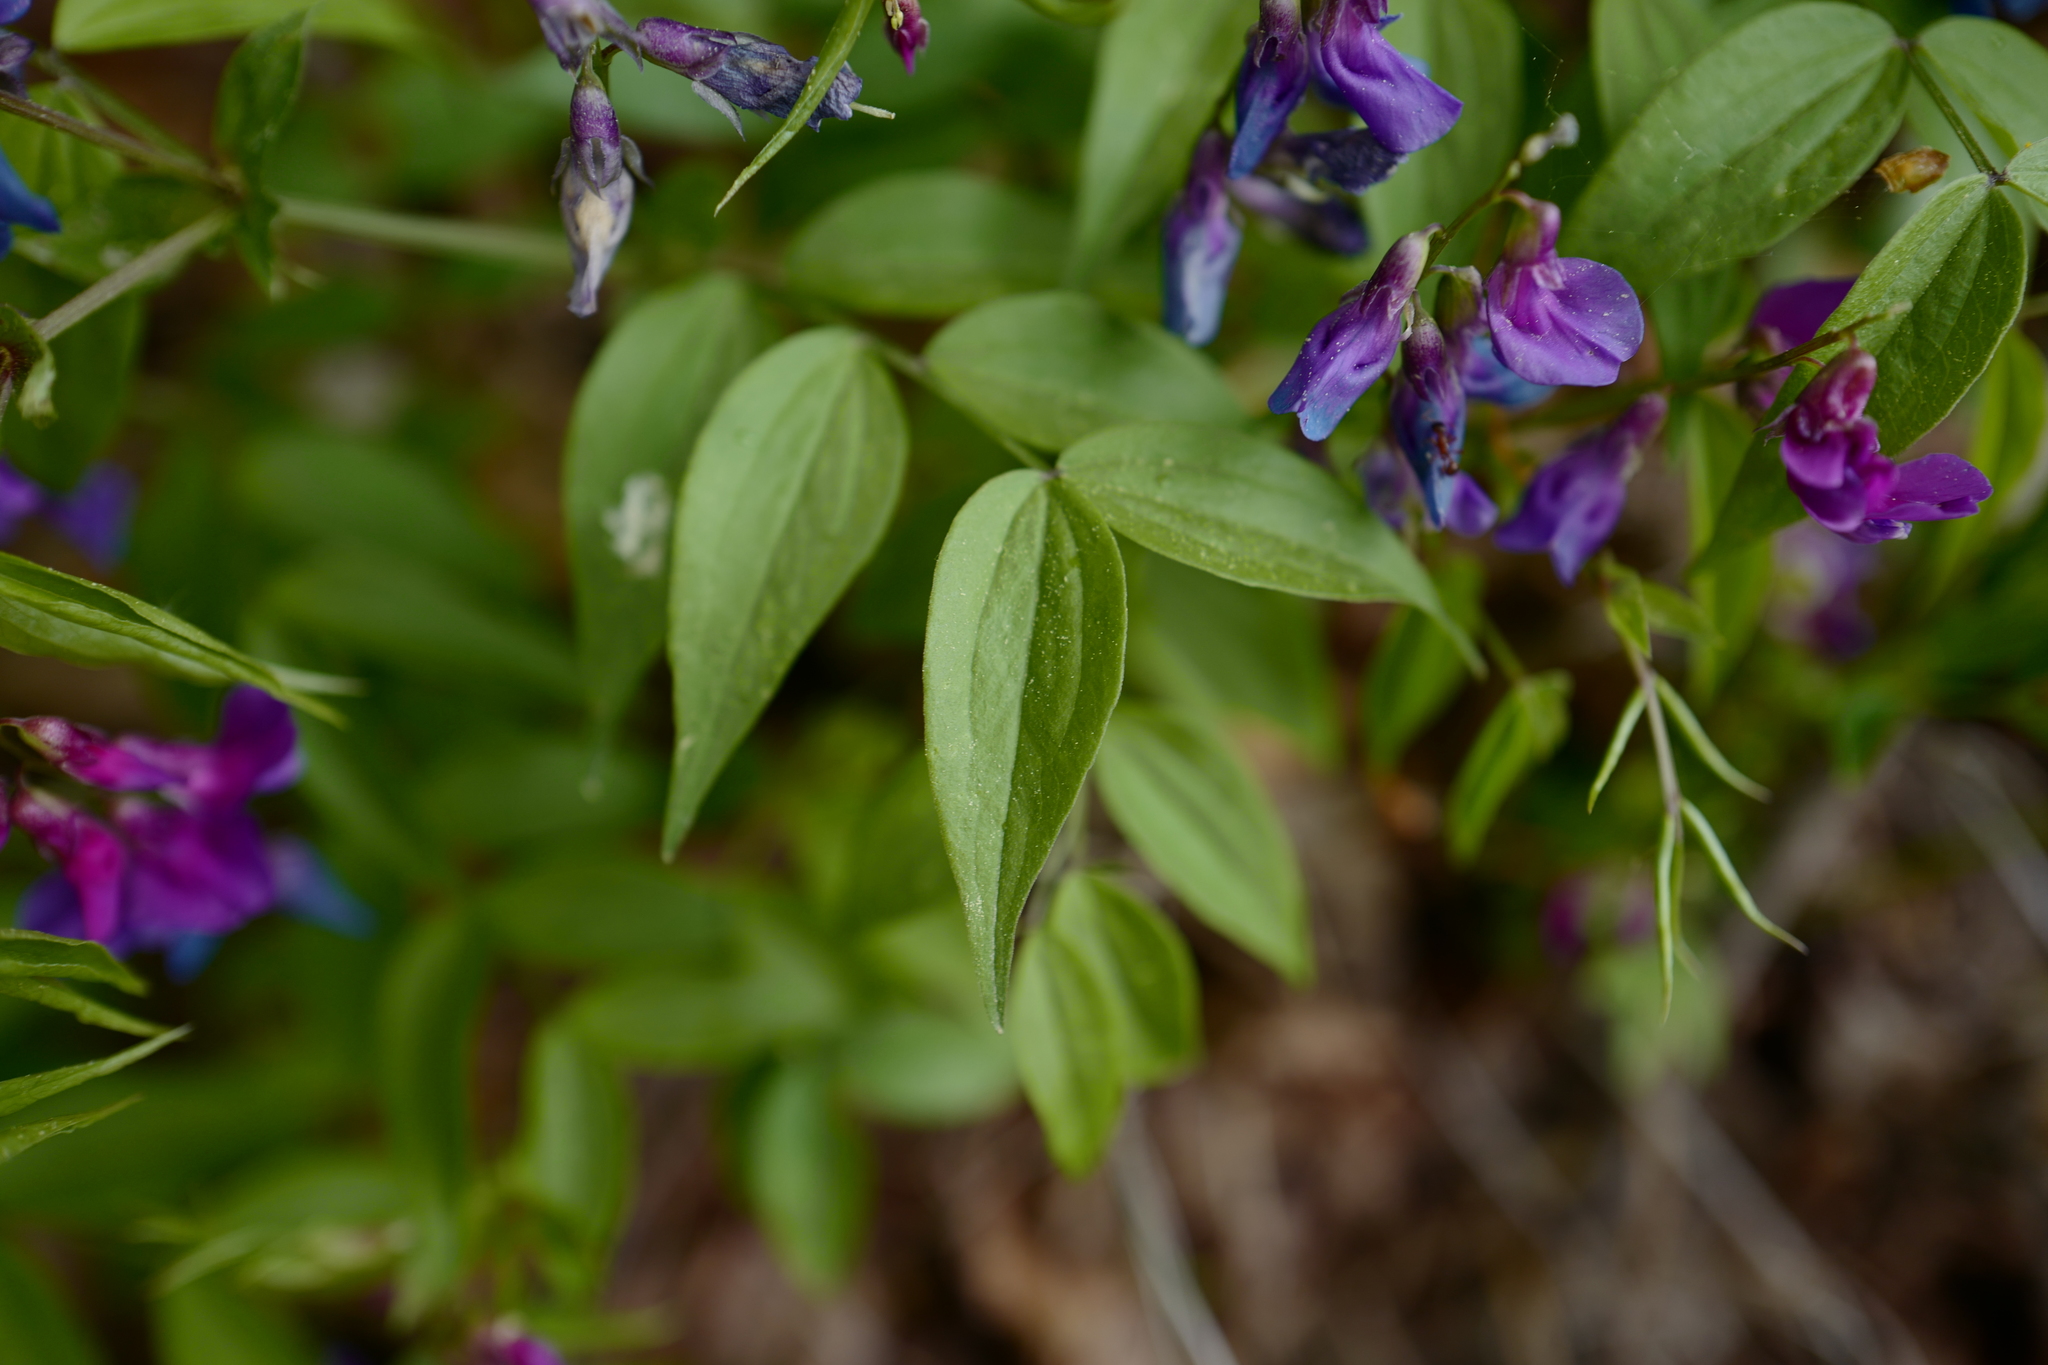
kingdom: Plantae
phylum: Tracheophyta
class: Magnoliopsida
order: Fabales
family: Fabaceae
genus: Lathyrus
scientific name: Lathyrus vernus
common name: Spring pea
